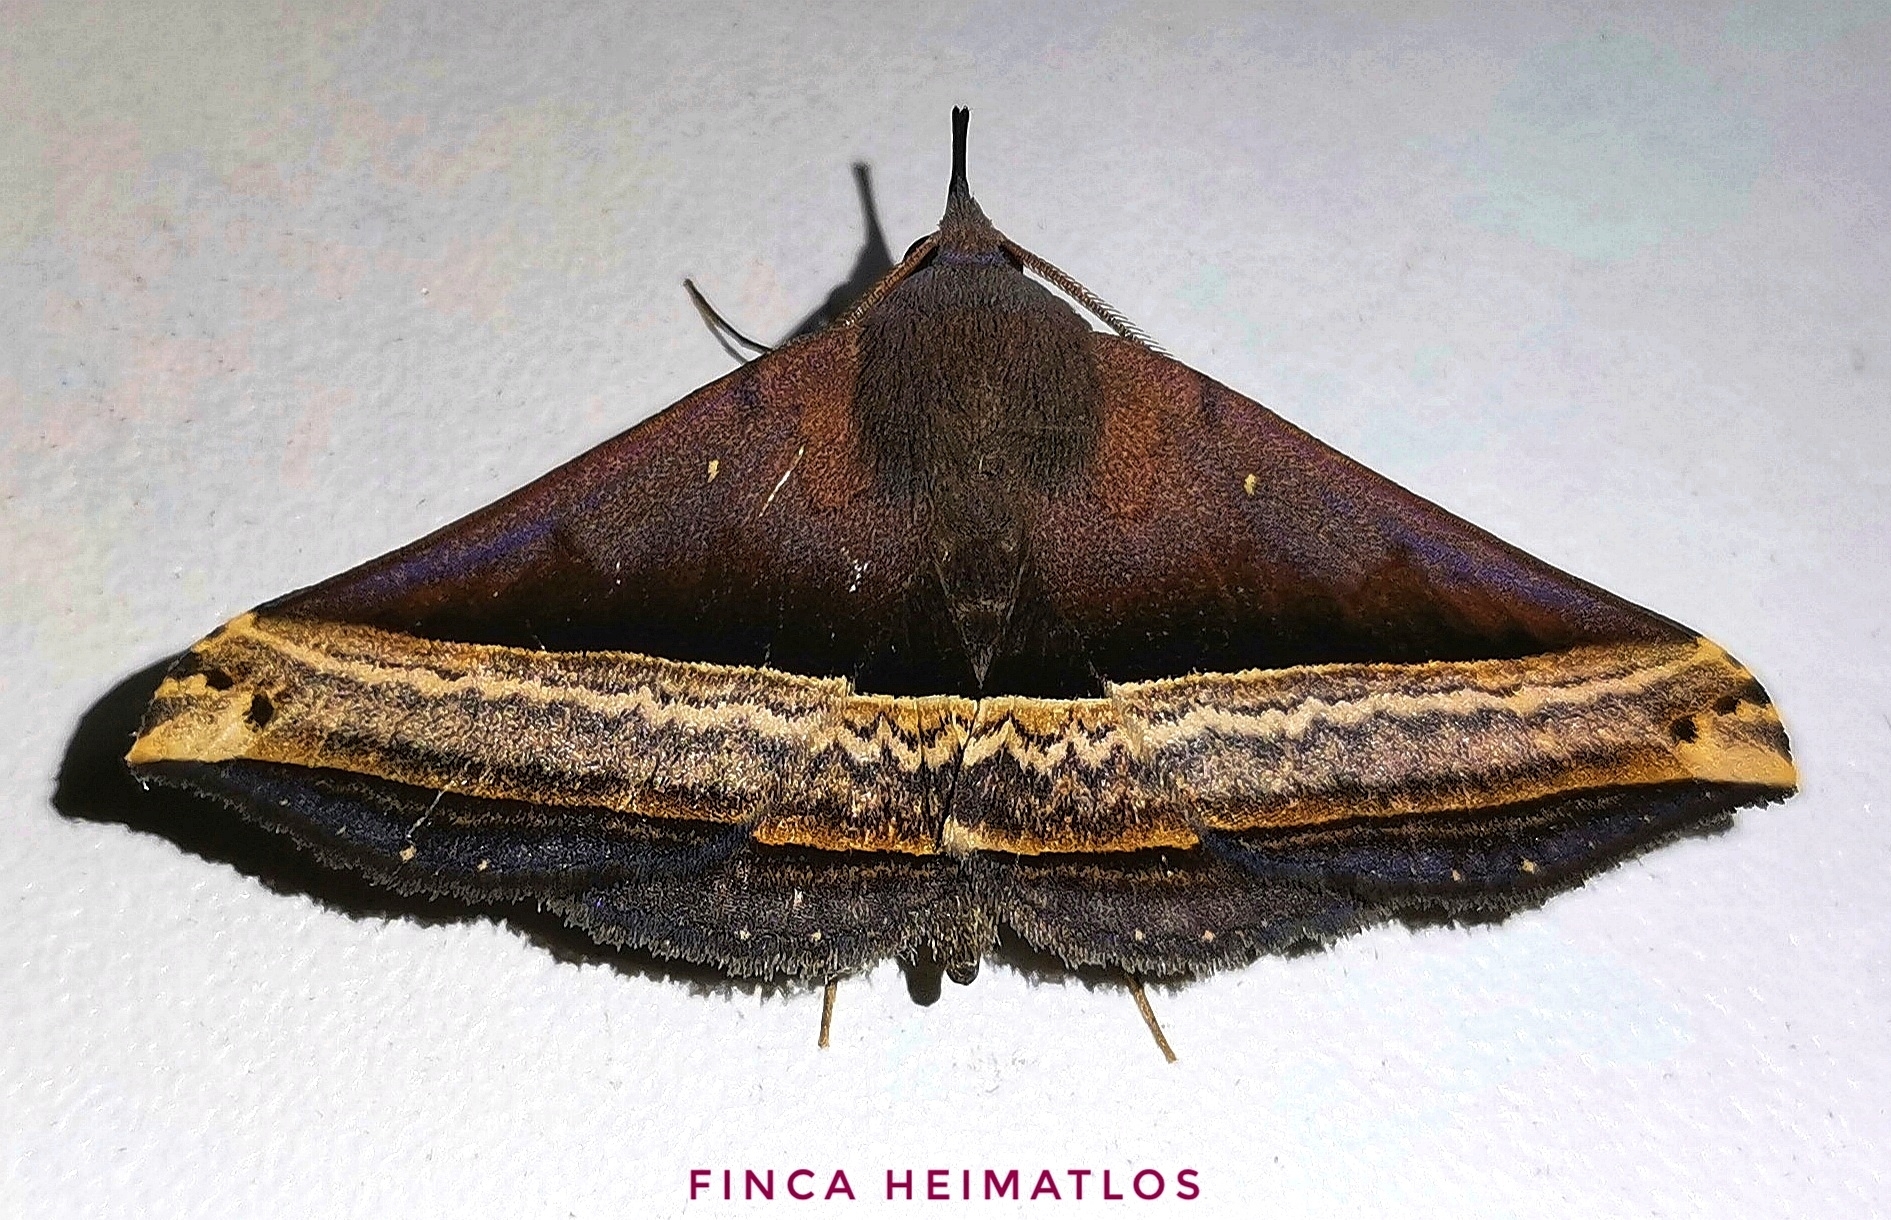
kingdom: Animalia
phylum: Arthropoda
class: Insecta
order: Lepidoptera
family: Erebidae
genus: Pterhemia
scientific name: Pterhemia
